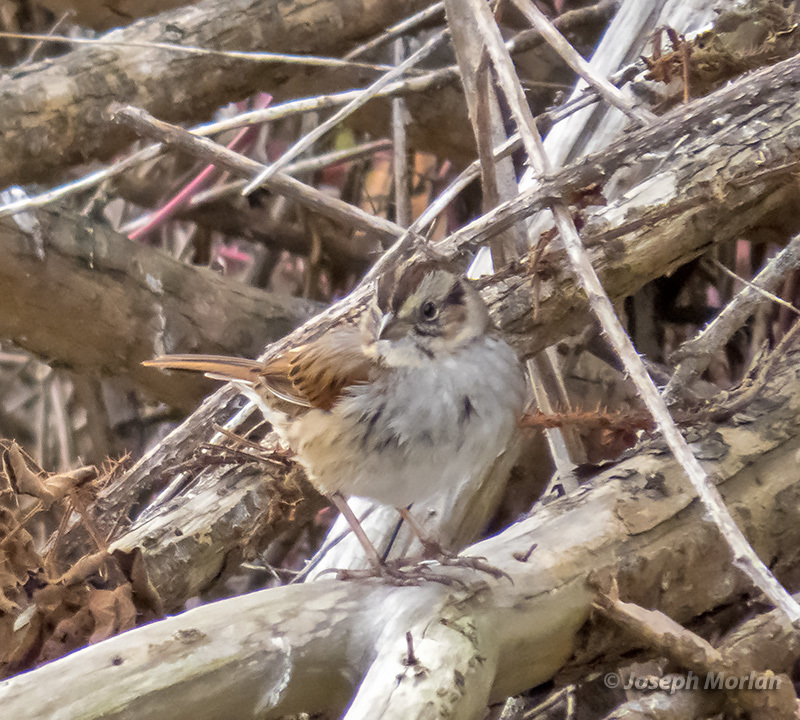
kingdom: Animalia
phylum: Chordata
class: Aves
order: Passeriformes
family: Passerellidae
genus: Melospiza
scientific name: Melospiza georgiana
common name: Swamp sparrow
